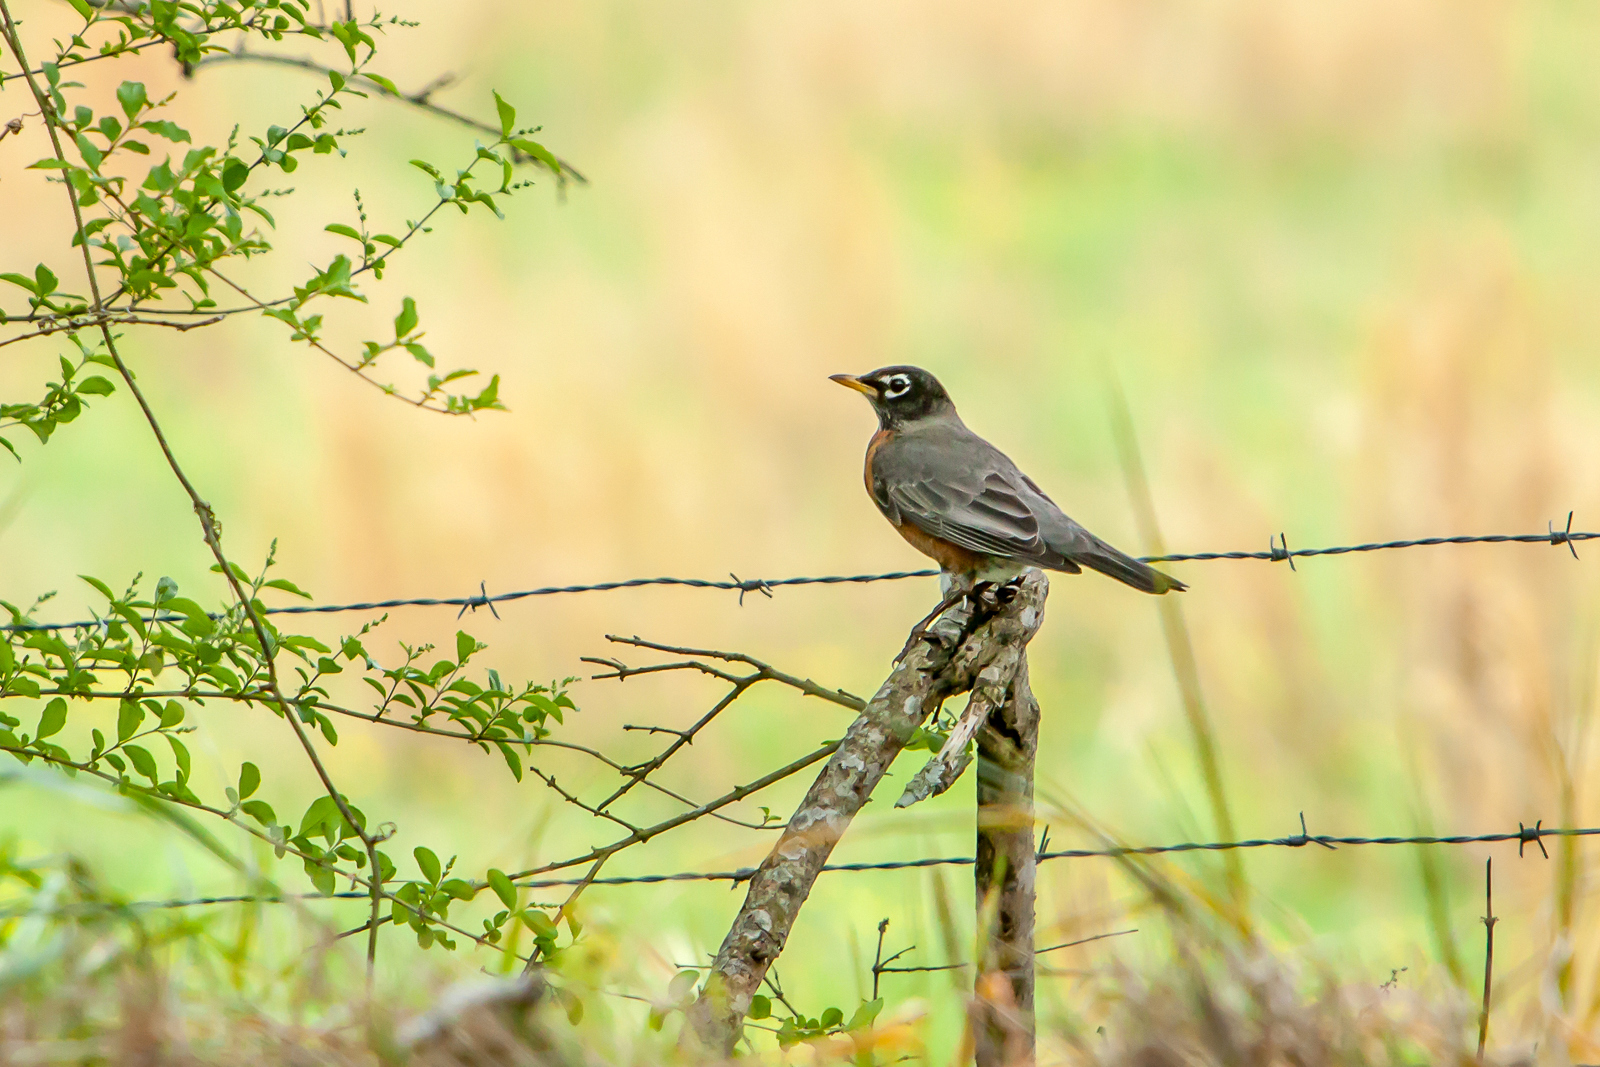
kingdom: Animalia
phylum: Chordata
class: Aves
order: Passeriformes
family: Turdidae
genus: Turdus
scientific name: Turdus migratorius
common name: American robin
